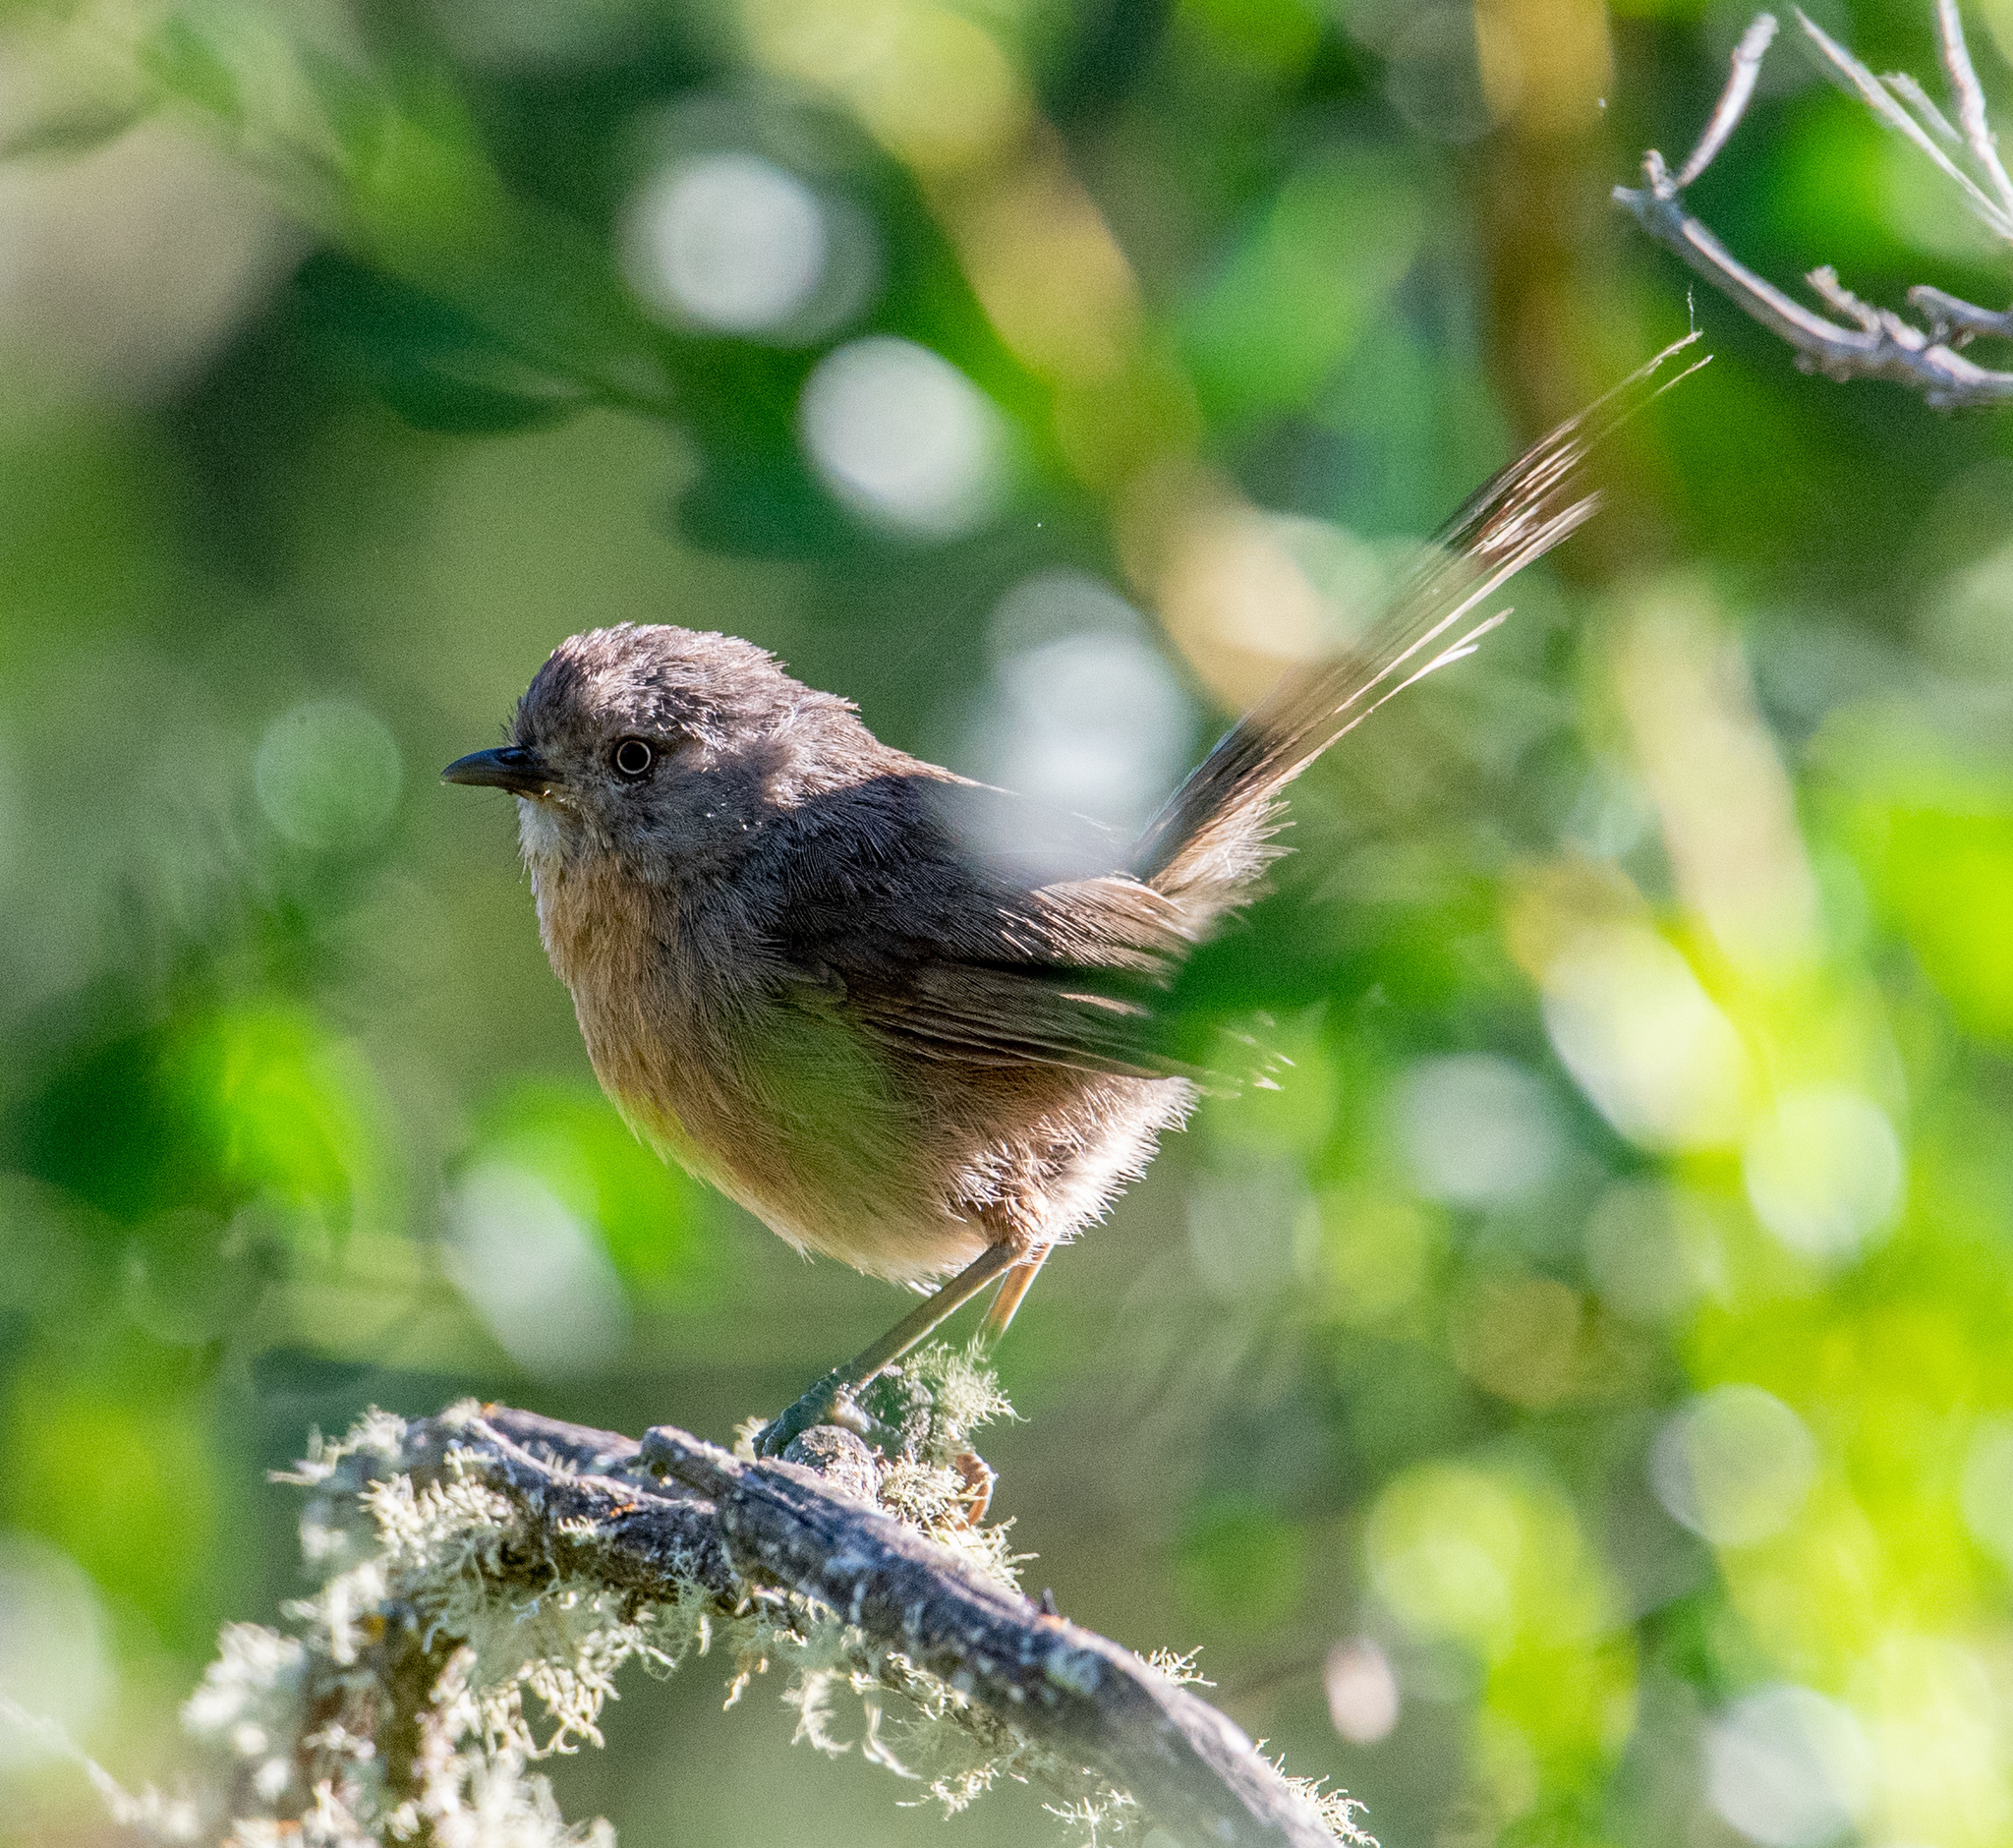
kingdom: Animalia
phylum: Chordata
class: Aves
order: Passeriformes
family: Sylviidae
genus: Chamaea
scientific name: Chamaea fasciata
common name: Wrentit
